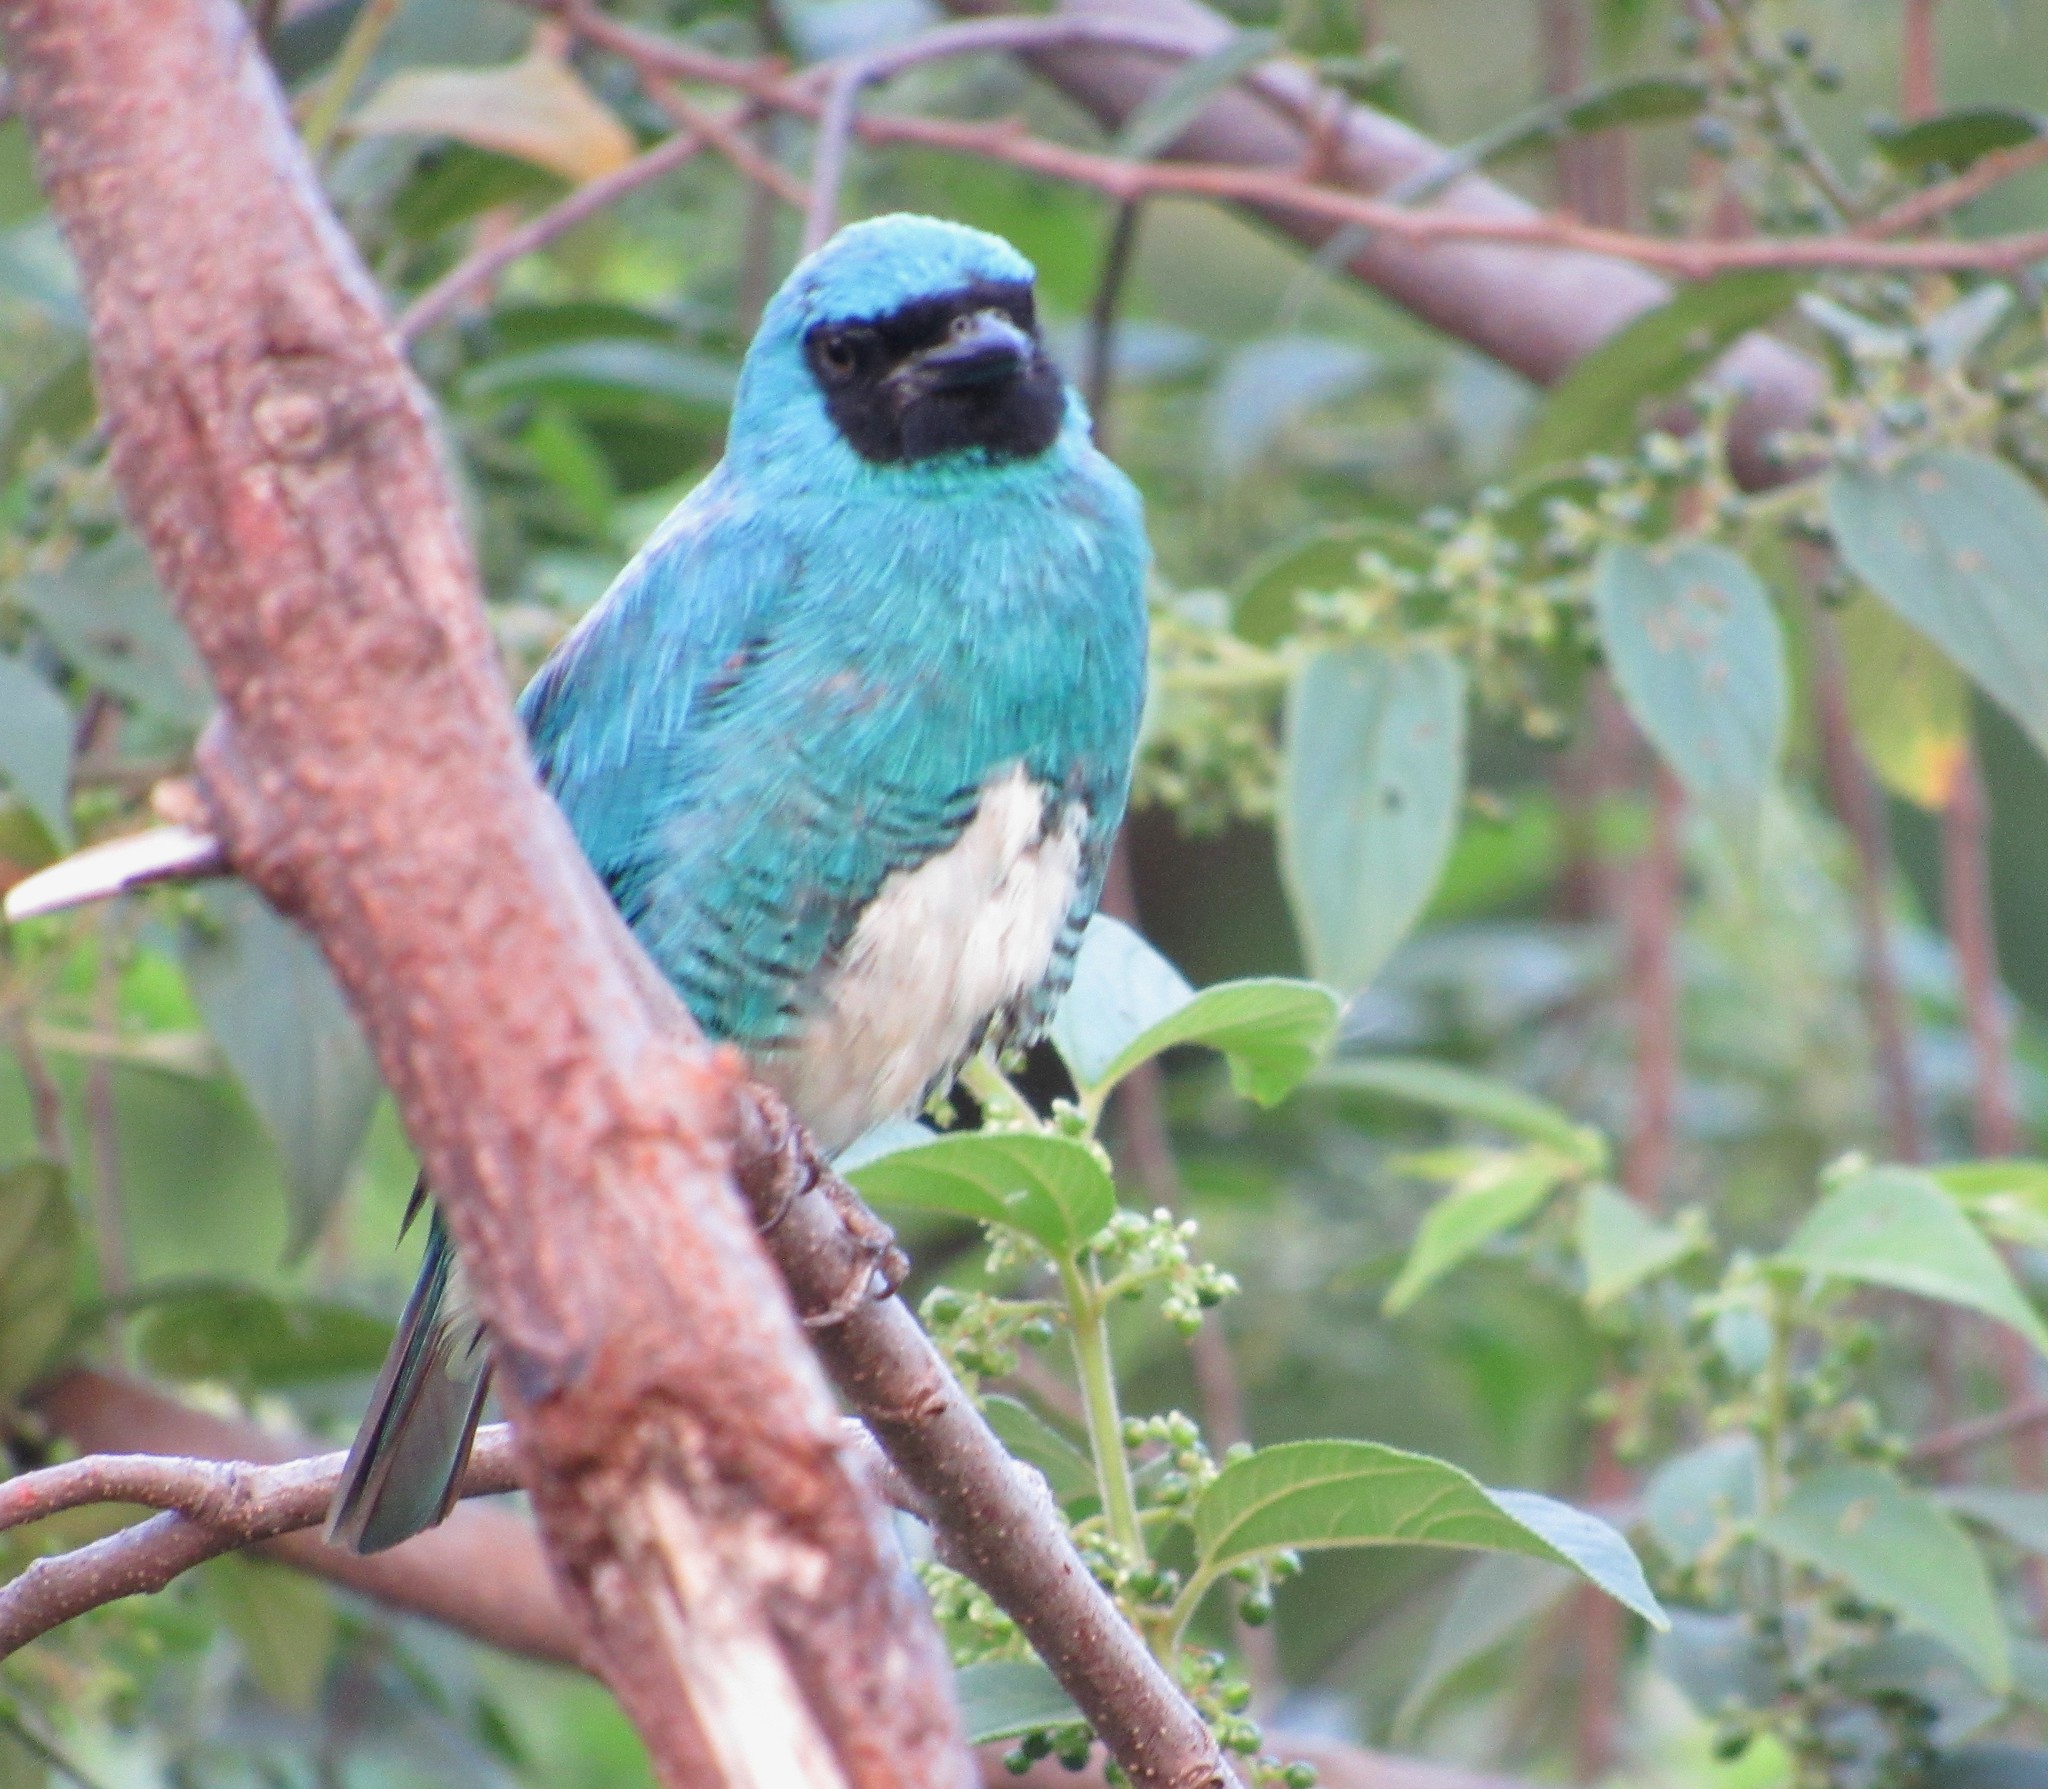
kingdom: Animalia
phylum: Chordata
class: Aves
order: Passeriformes
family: Thraupidae
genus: Tersina
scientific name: Tersina viridis
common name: Swallow tanager
